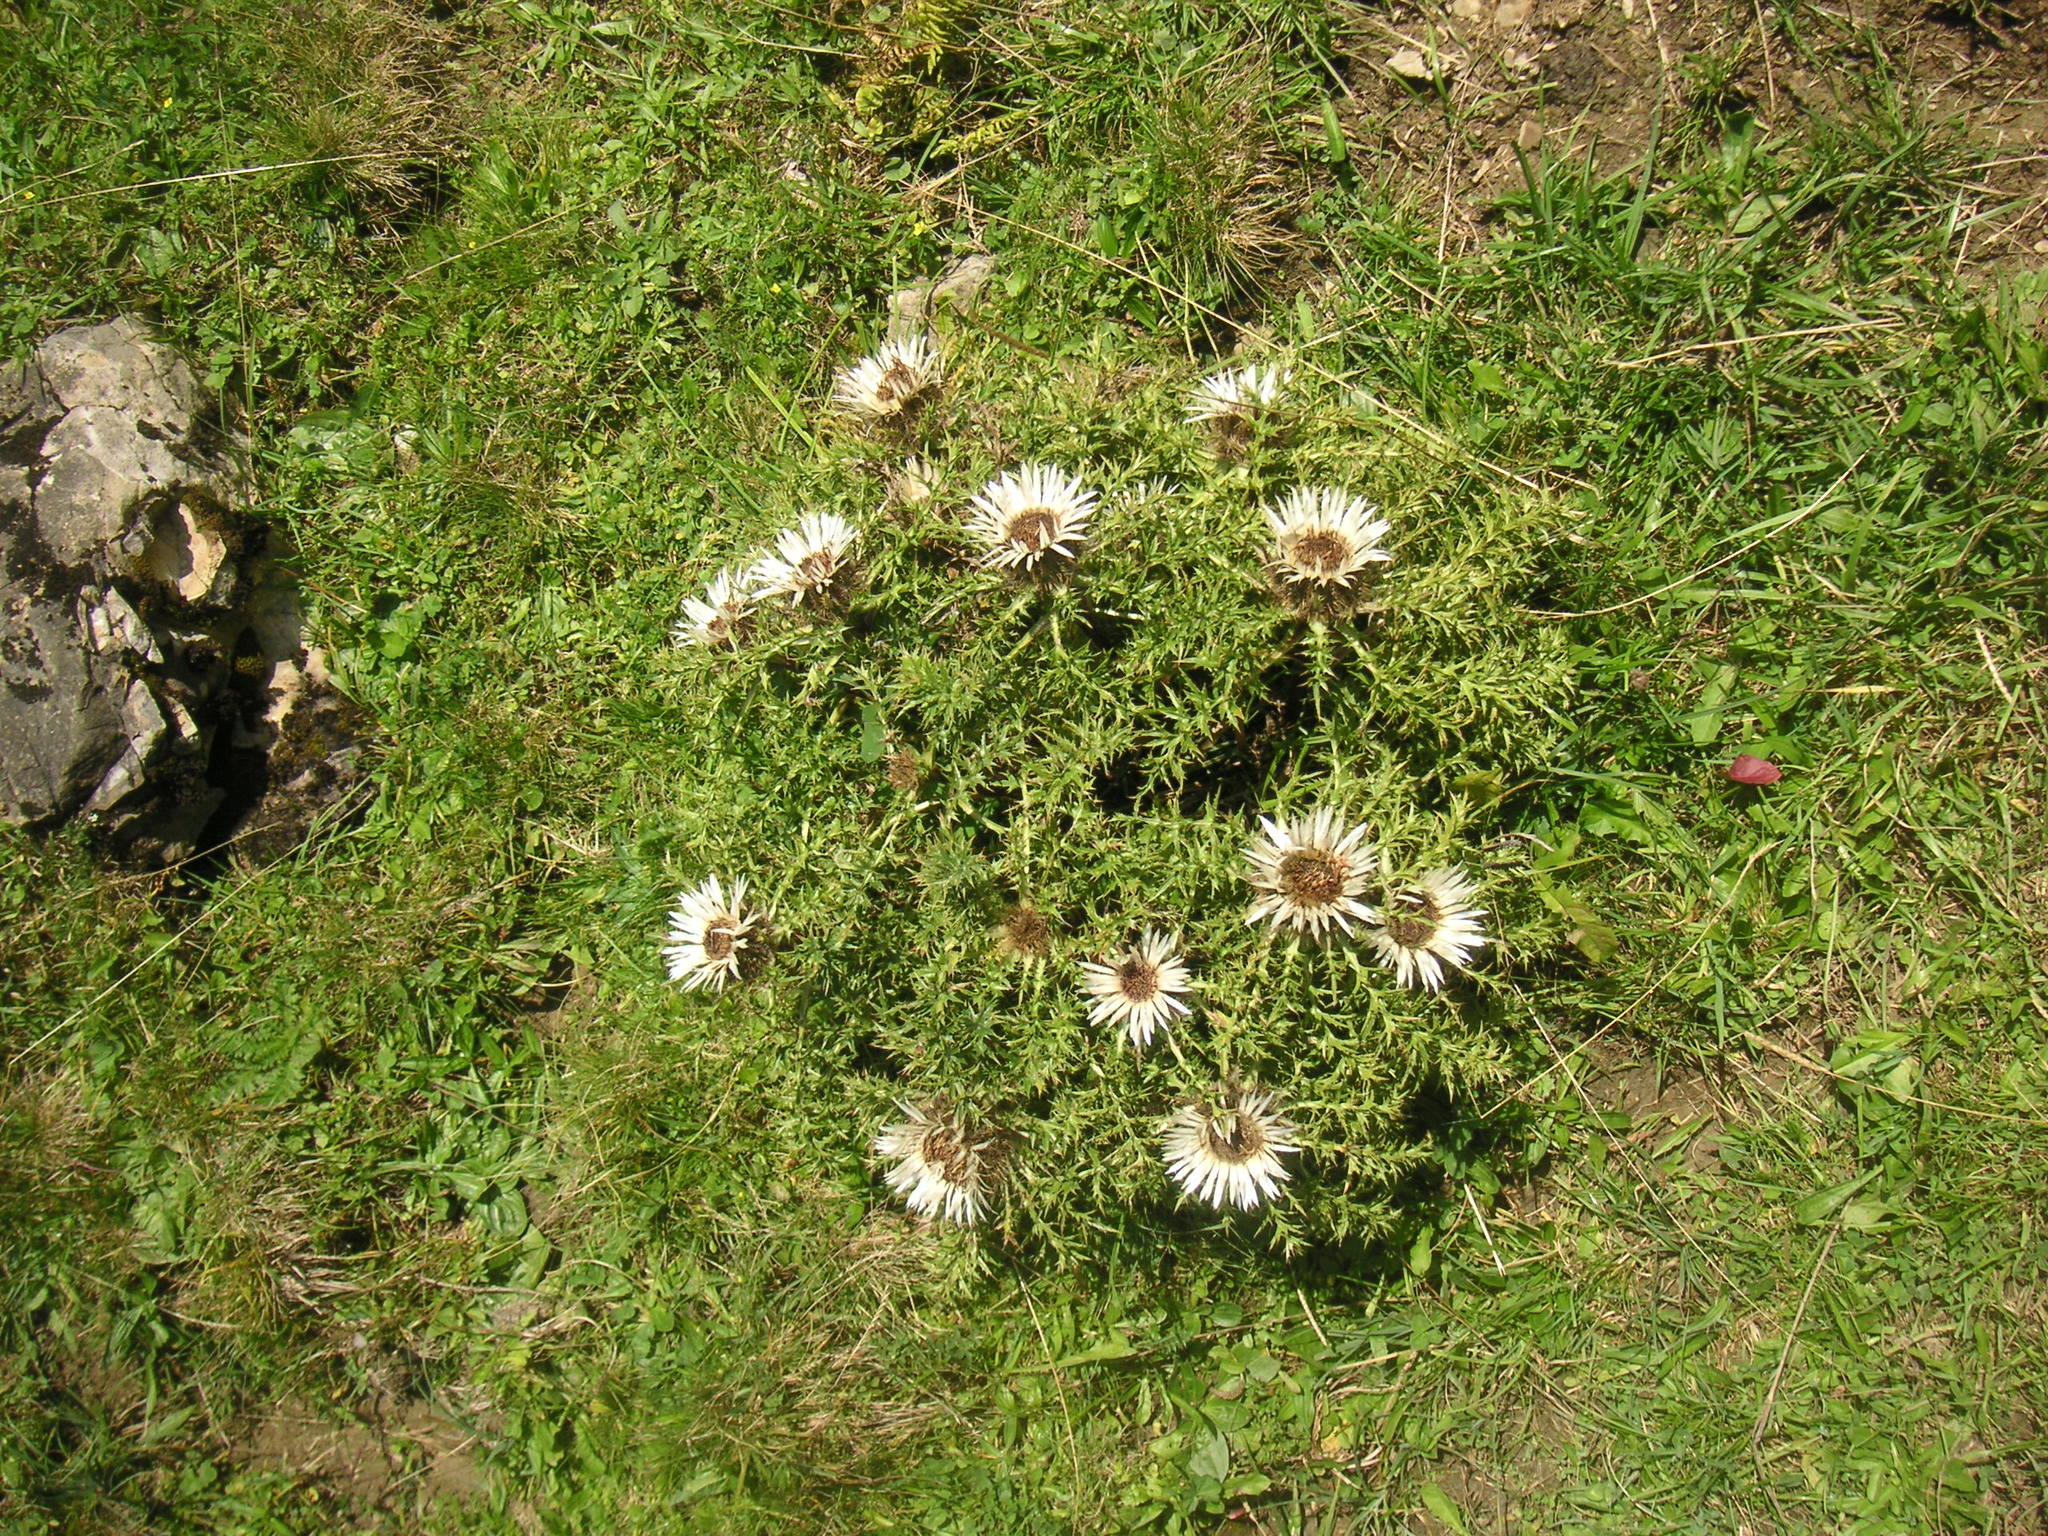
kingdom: Plantae
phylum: Tracheophyta
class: Magnoliopsida
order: Asterales
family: Asteraceae
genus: Carlina
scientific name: Carlina acaulis
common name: Stemless carline thistle
